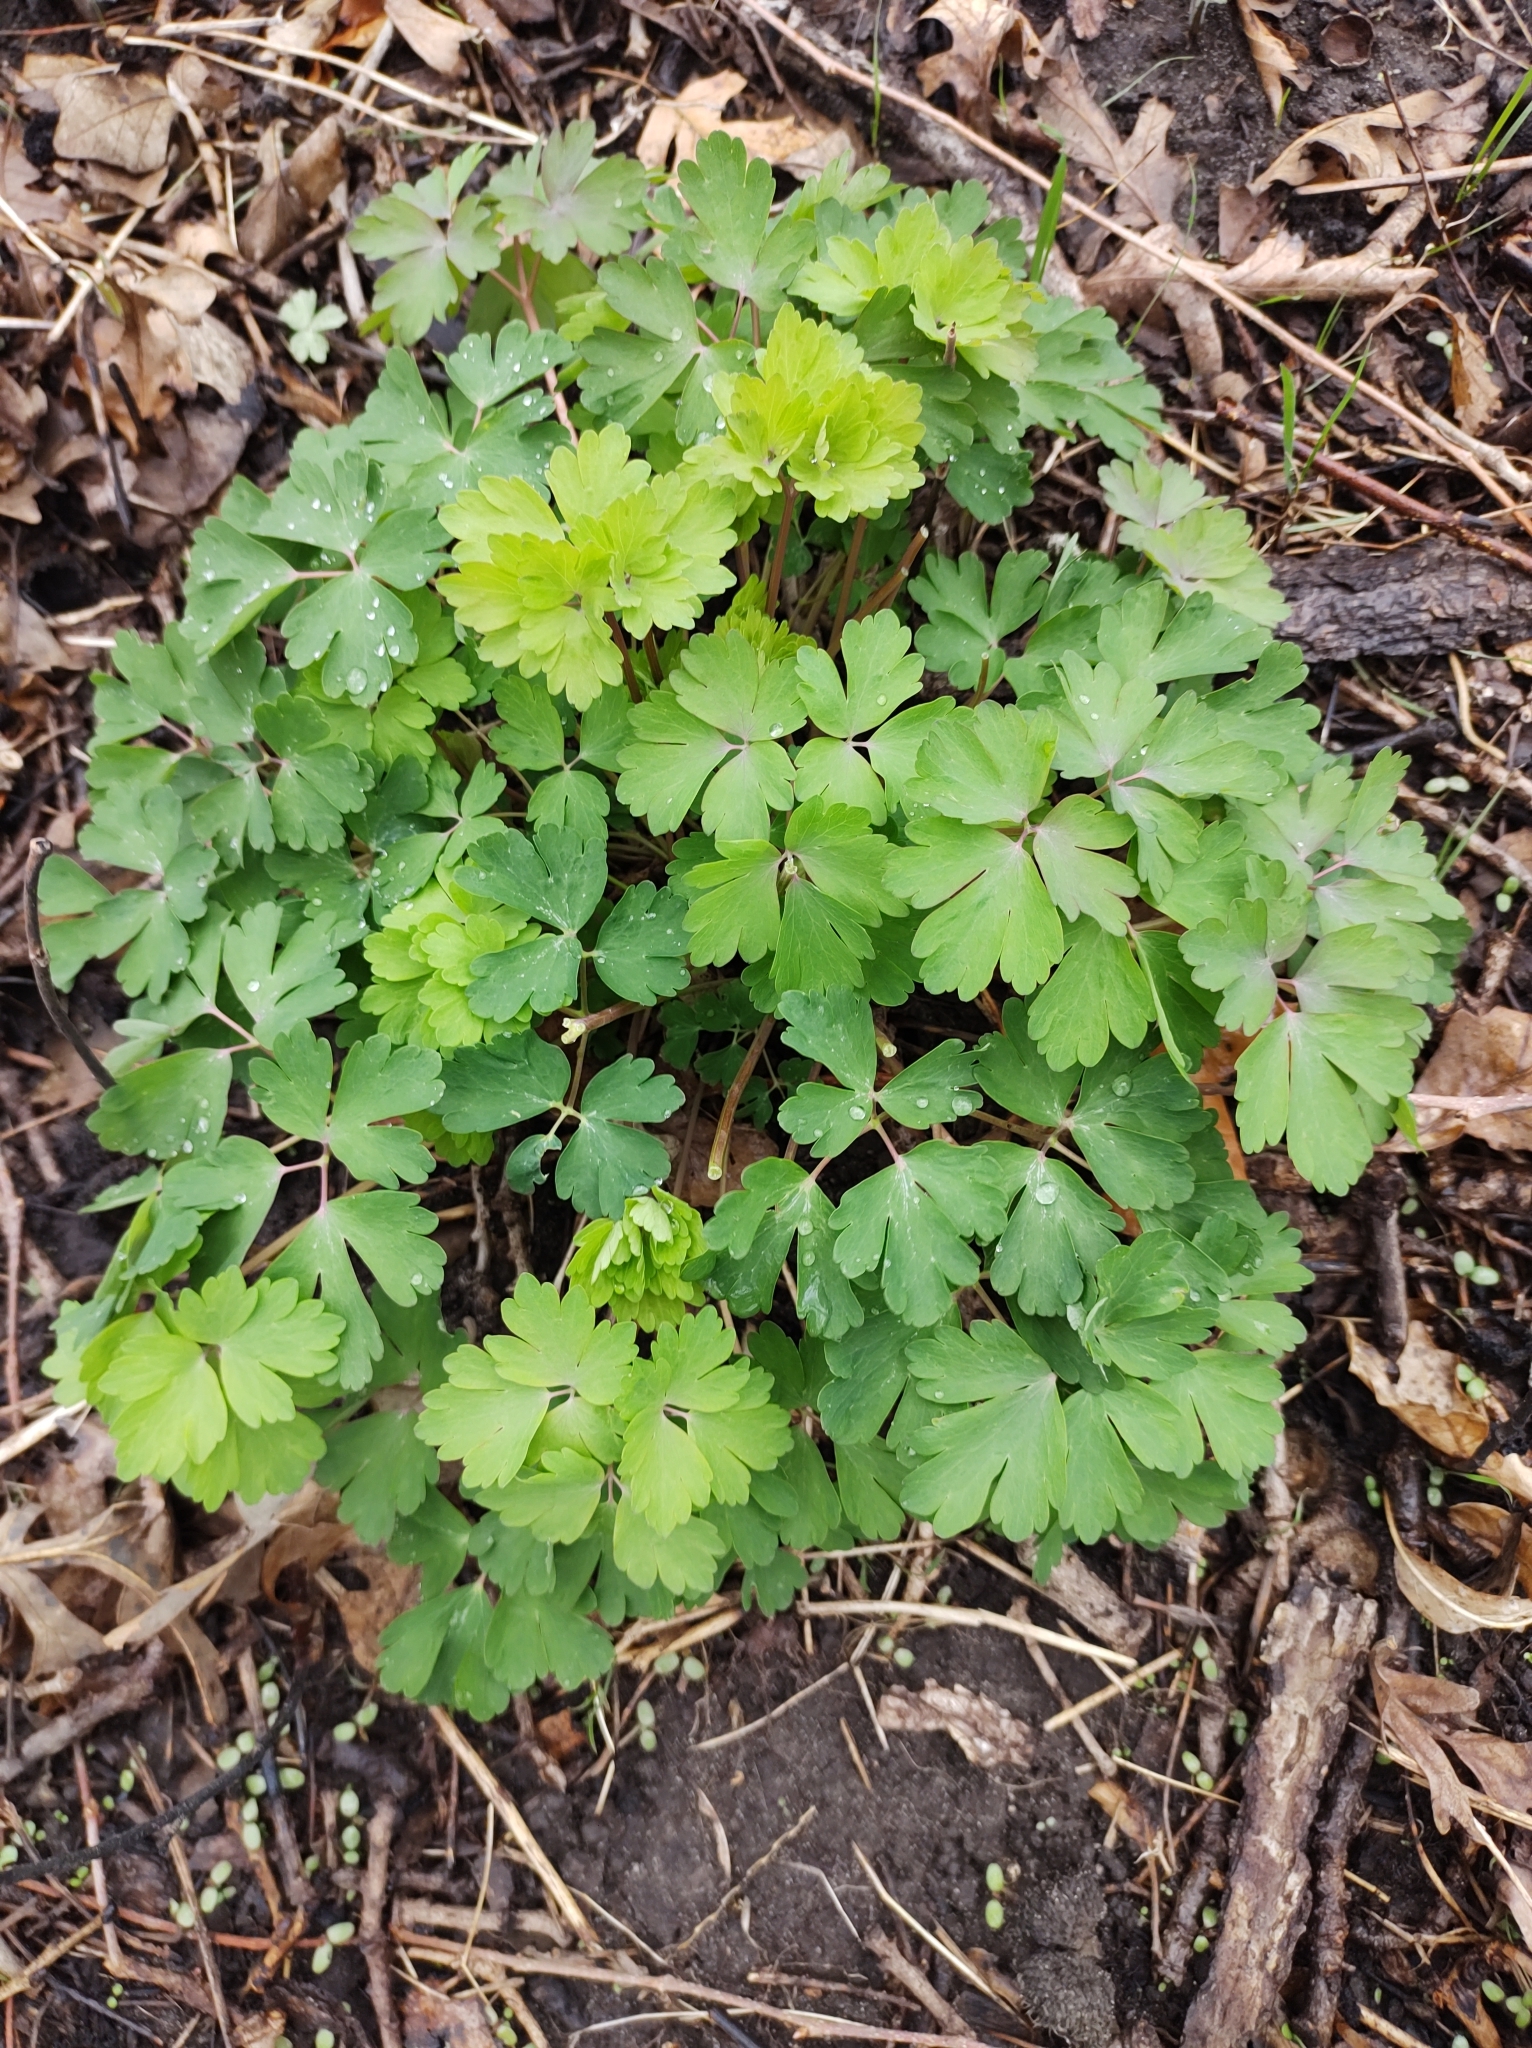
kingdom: Plantae
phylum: Tracheophyta
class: Magnoliopsida
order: Ranunculales
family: Ranunculaceae
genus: Aquilegia
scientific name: Aquilegia canadensis
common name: American columbine
